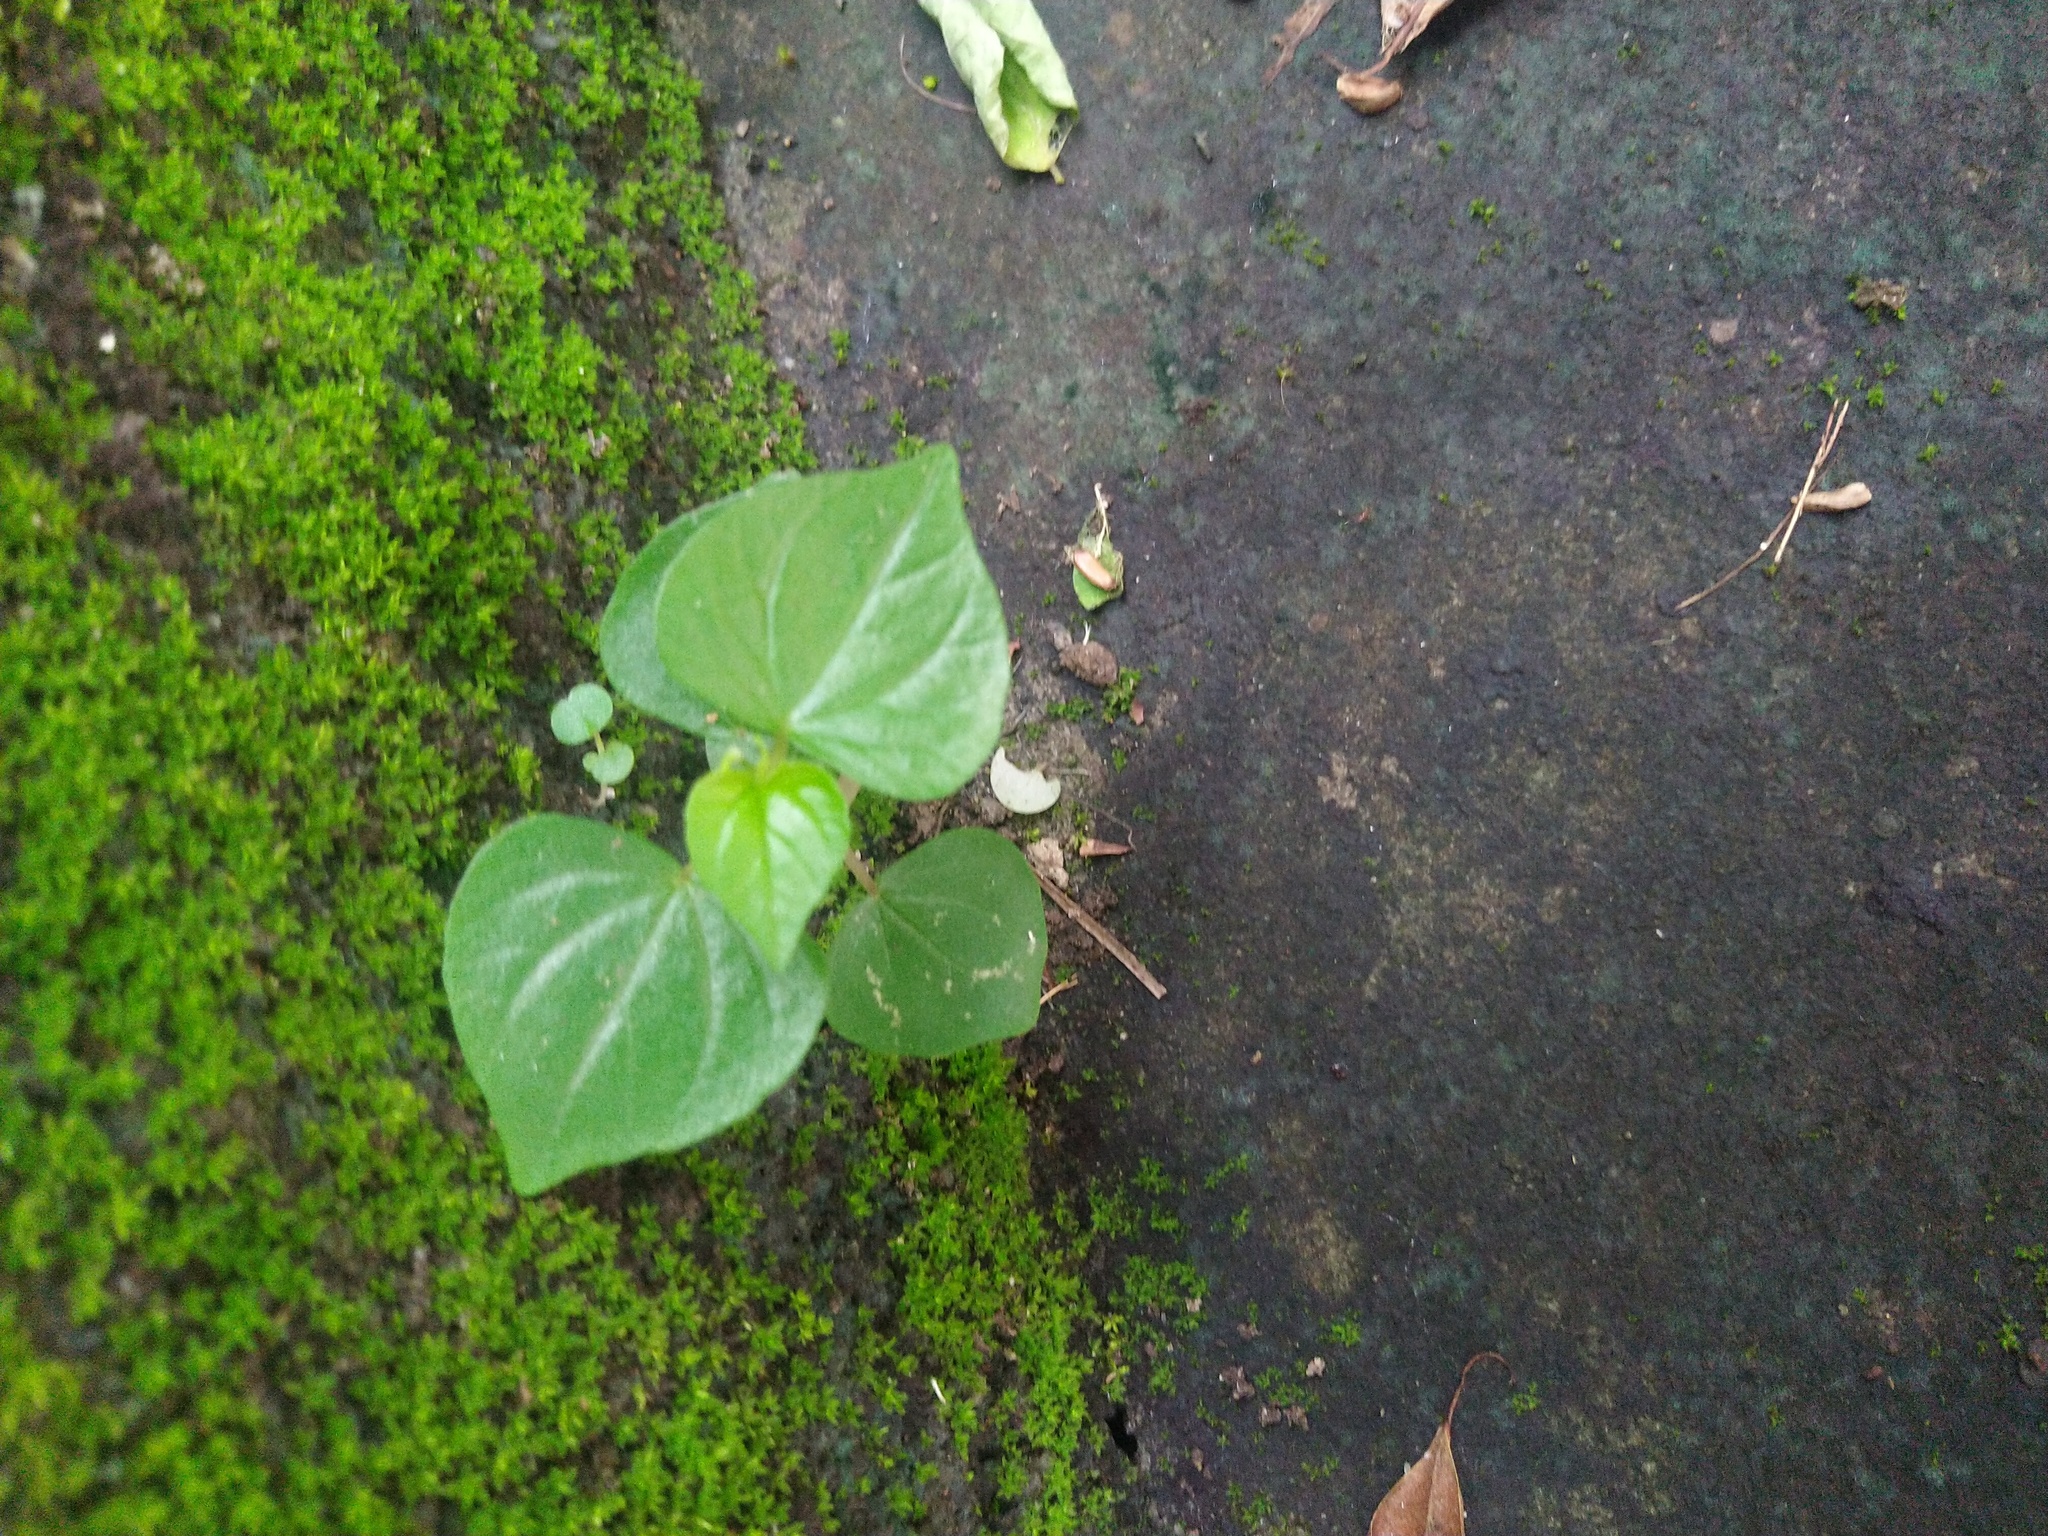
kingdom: Plantae
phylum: Tracheophyta
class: Magnoliopsida
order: Piperales
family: Piperaceae
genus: Peperomia
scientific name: Peperomia pellucida
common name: Man to man
